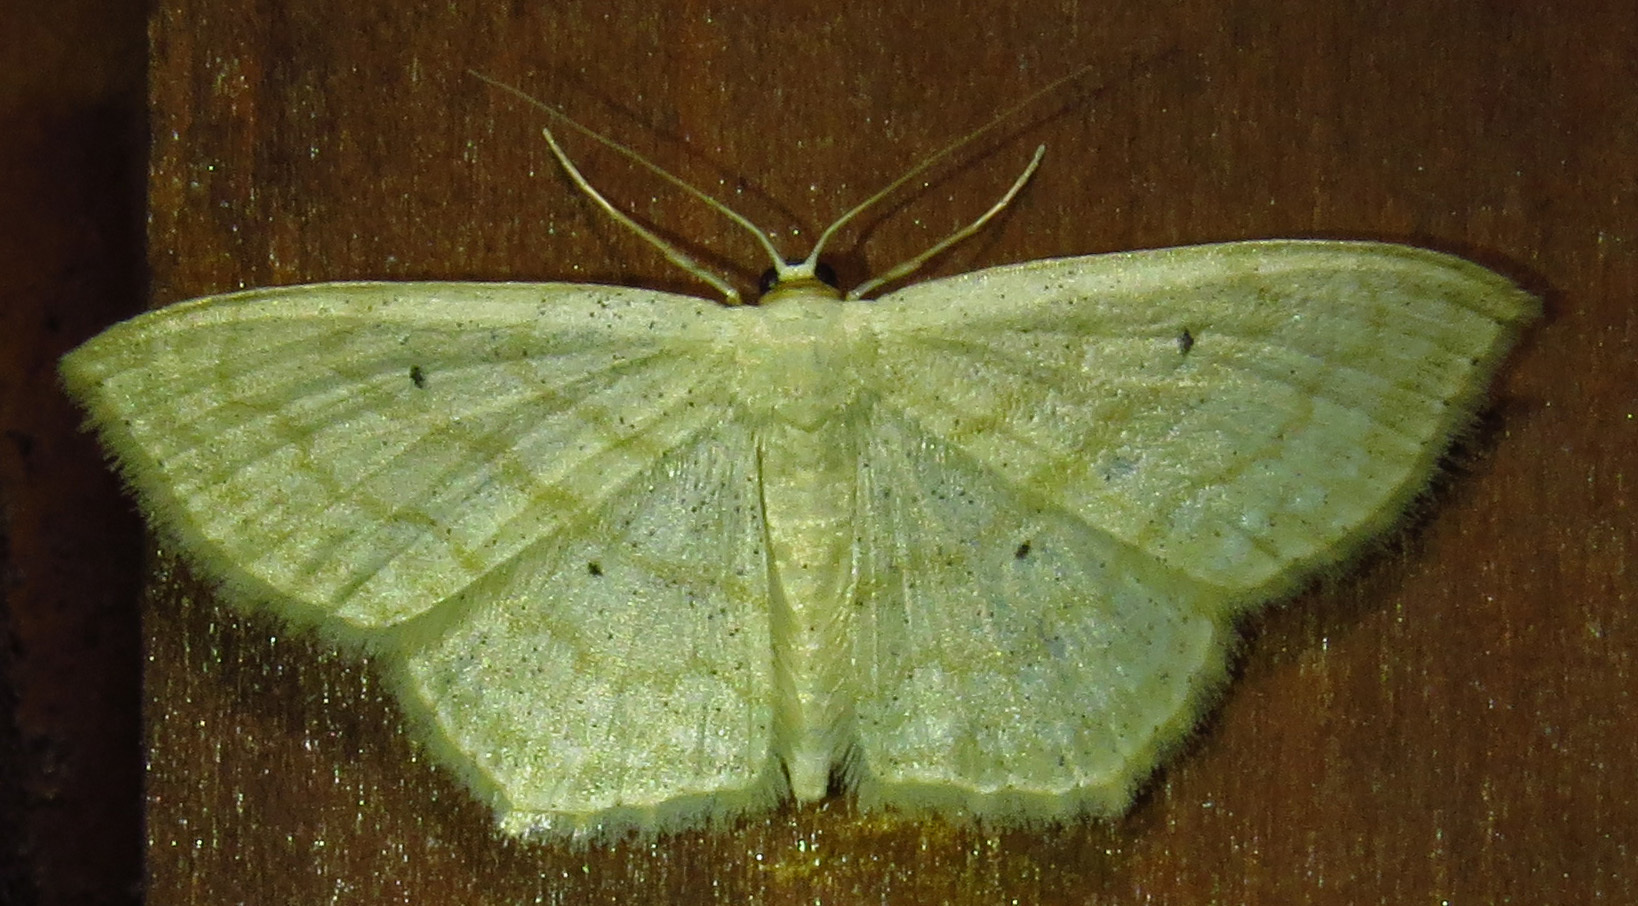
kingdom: Animalia
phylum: Arthropoda
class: Insecta
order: Lepidoptera
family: Geometridae
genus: Scopula
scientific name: Scopula limboundata
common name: Large lace border
